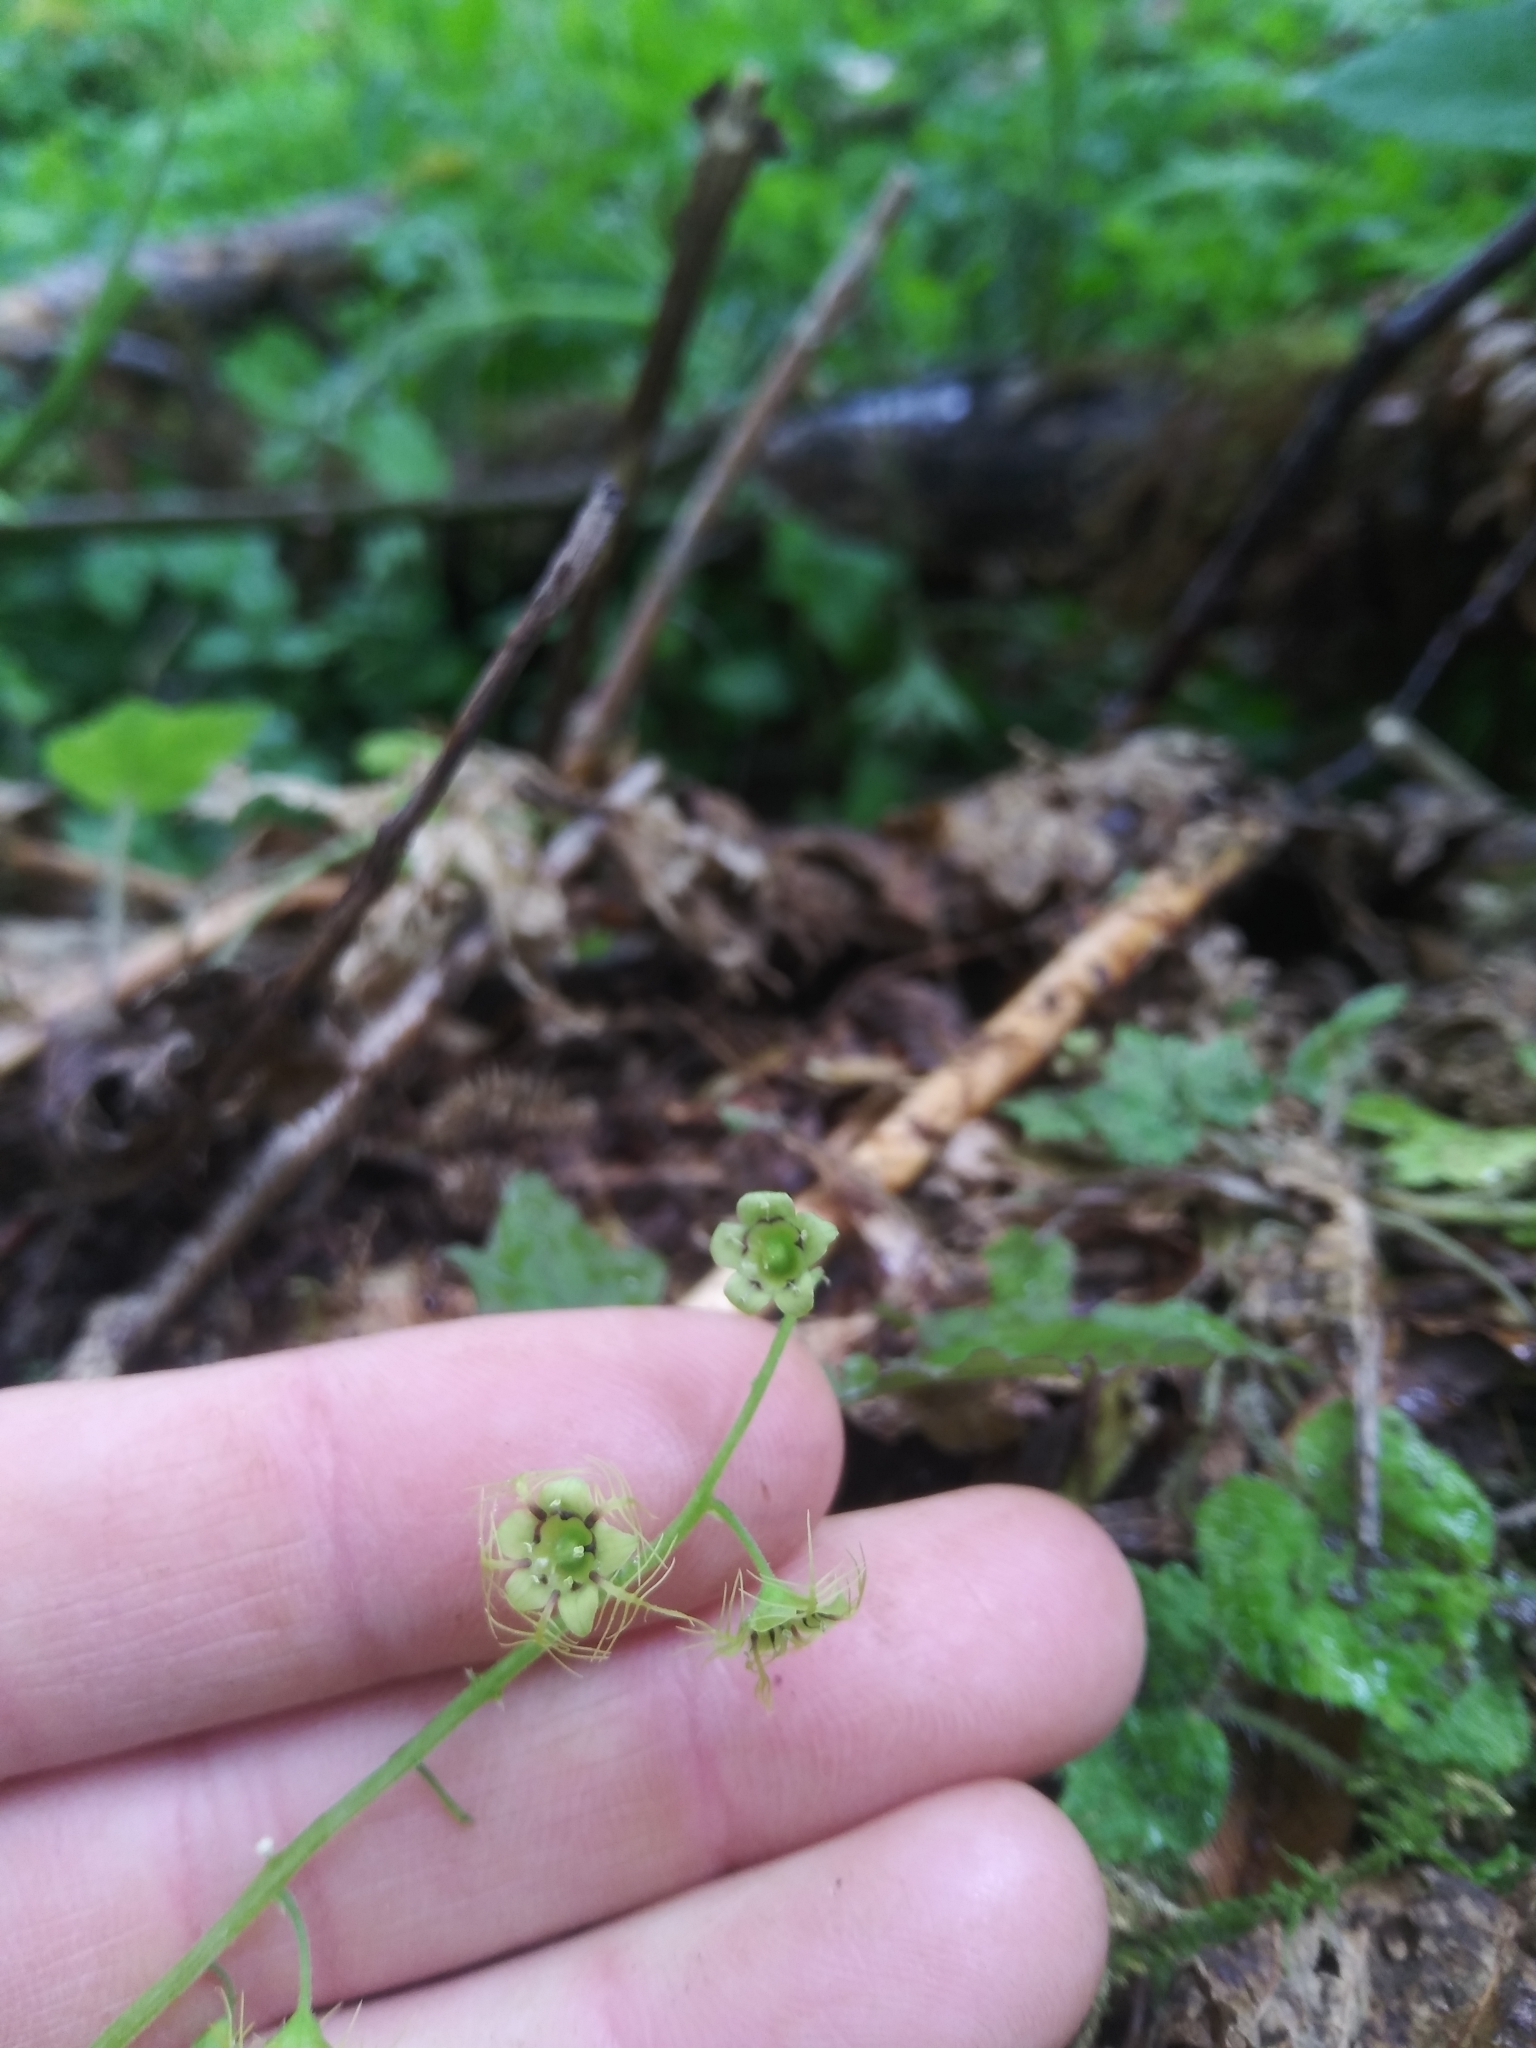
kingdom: Plantae
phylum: Tracheophyta
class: Magnoliopsida
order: Saxifragales
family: Saxifragaceae
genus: Mitellastra
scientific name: Mitellastra caulescens
